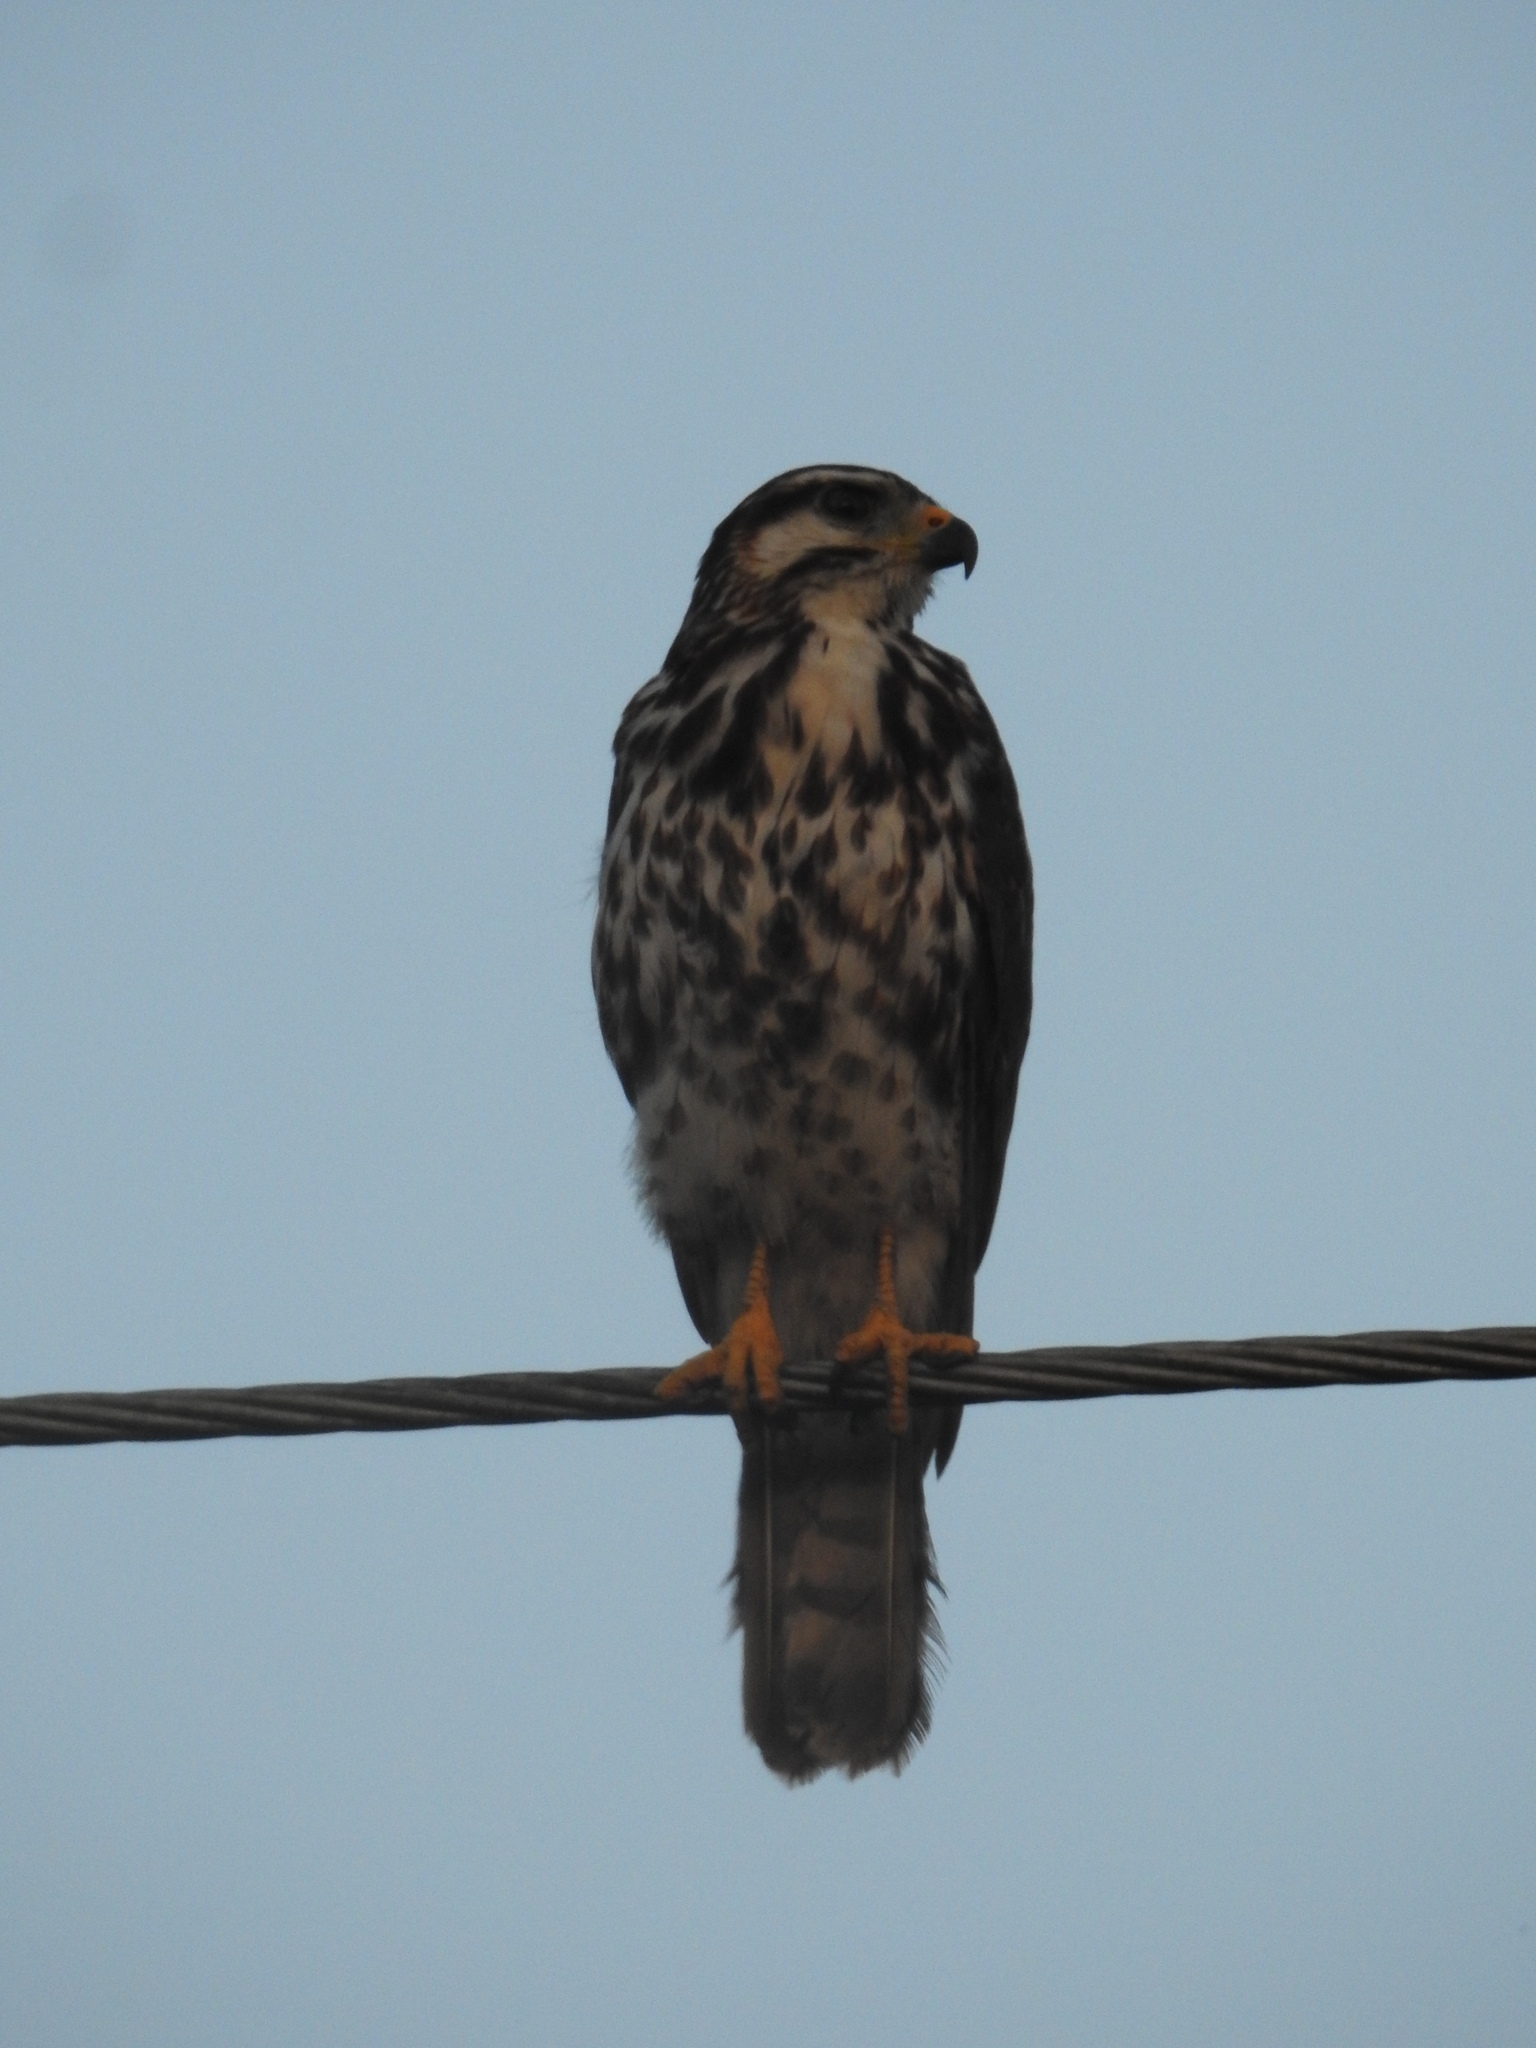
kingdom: Animalia
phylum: Chordata
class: Aves
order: Accipitriformes
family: Accipitridae
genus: Buteo
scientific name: Buteo nitidus
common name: Grey-lined hawk
